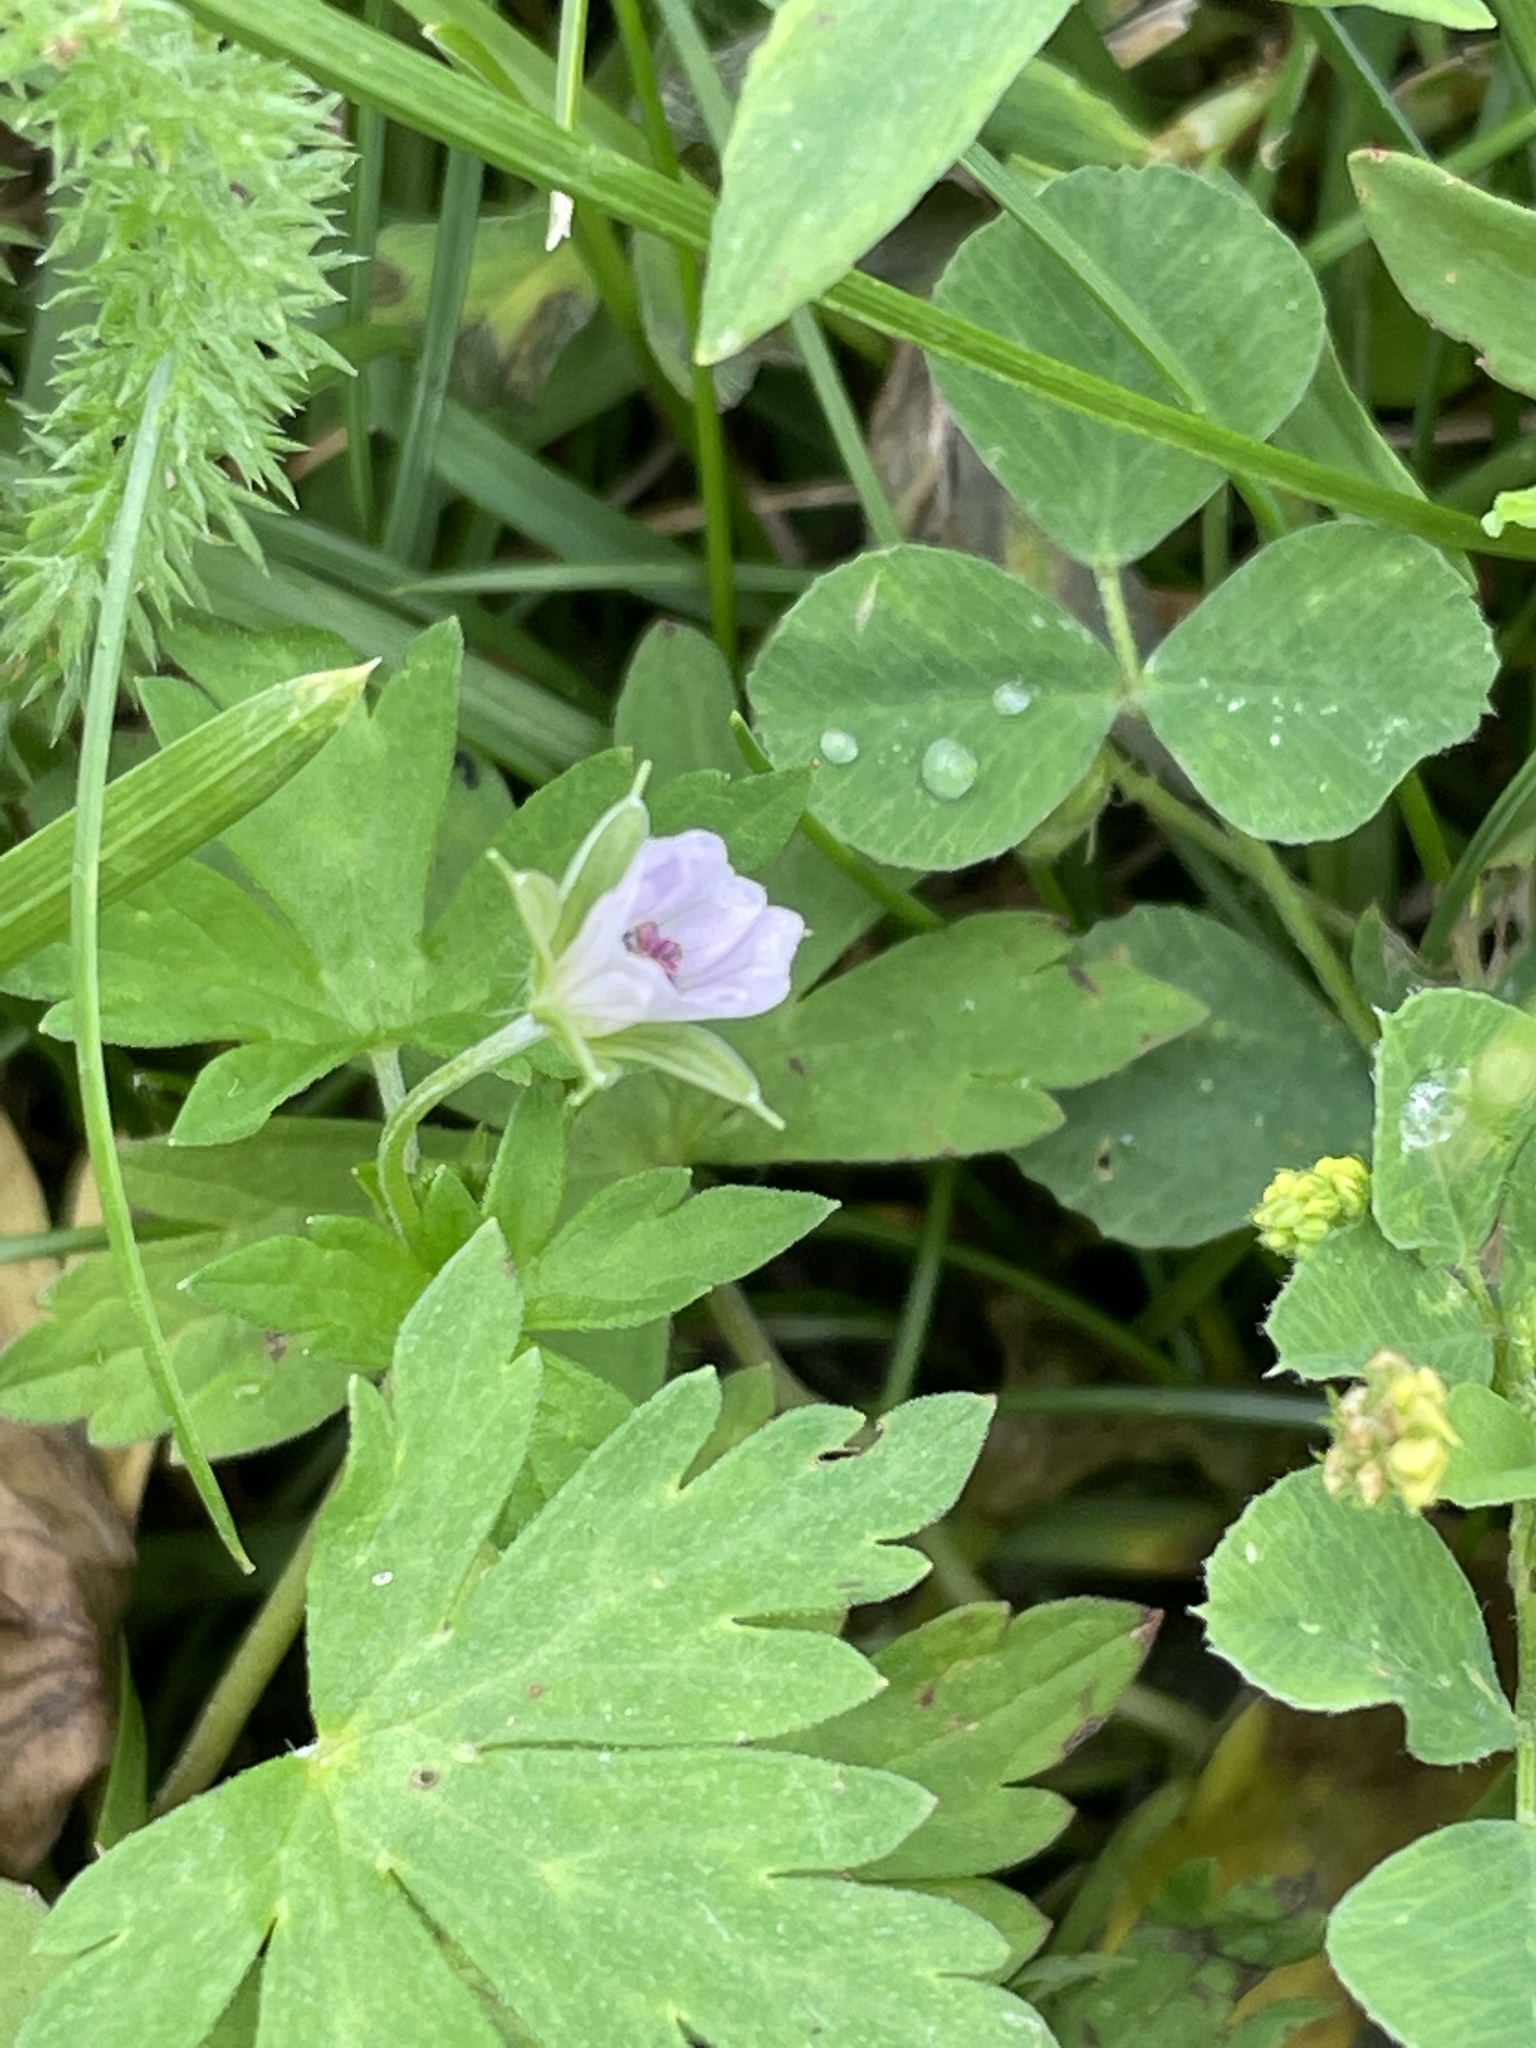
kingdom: Plantae
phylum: Tracheophyta
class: Magnoliopsida
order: Geraniales
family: Geraniaceae
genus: Geranium
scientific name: Geranium sibiricum
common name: Siberian crane's-bill
